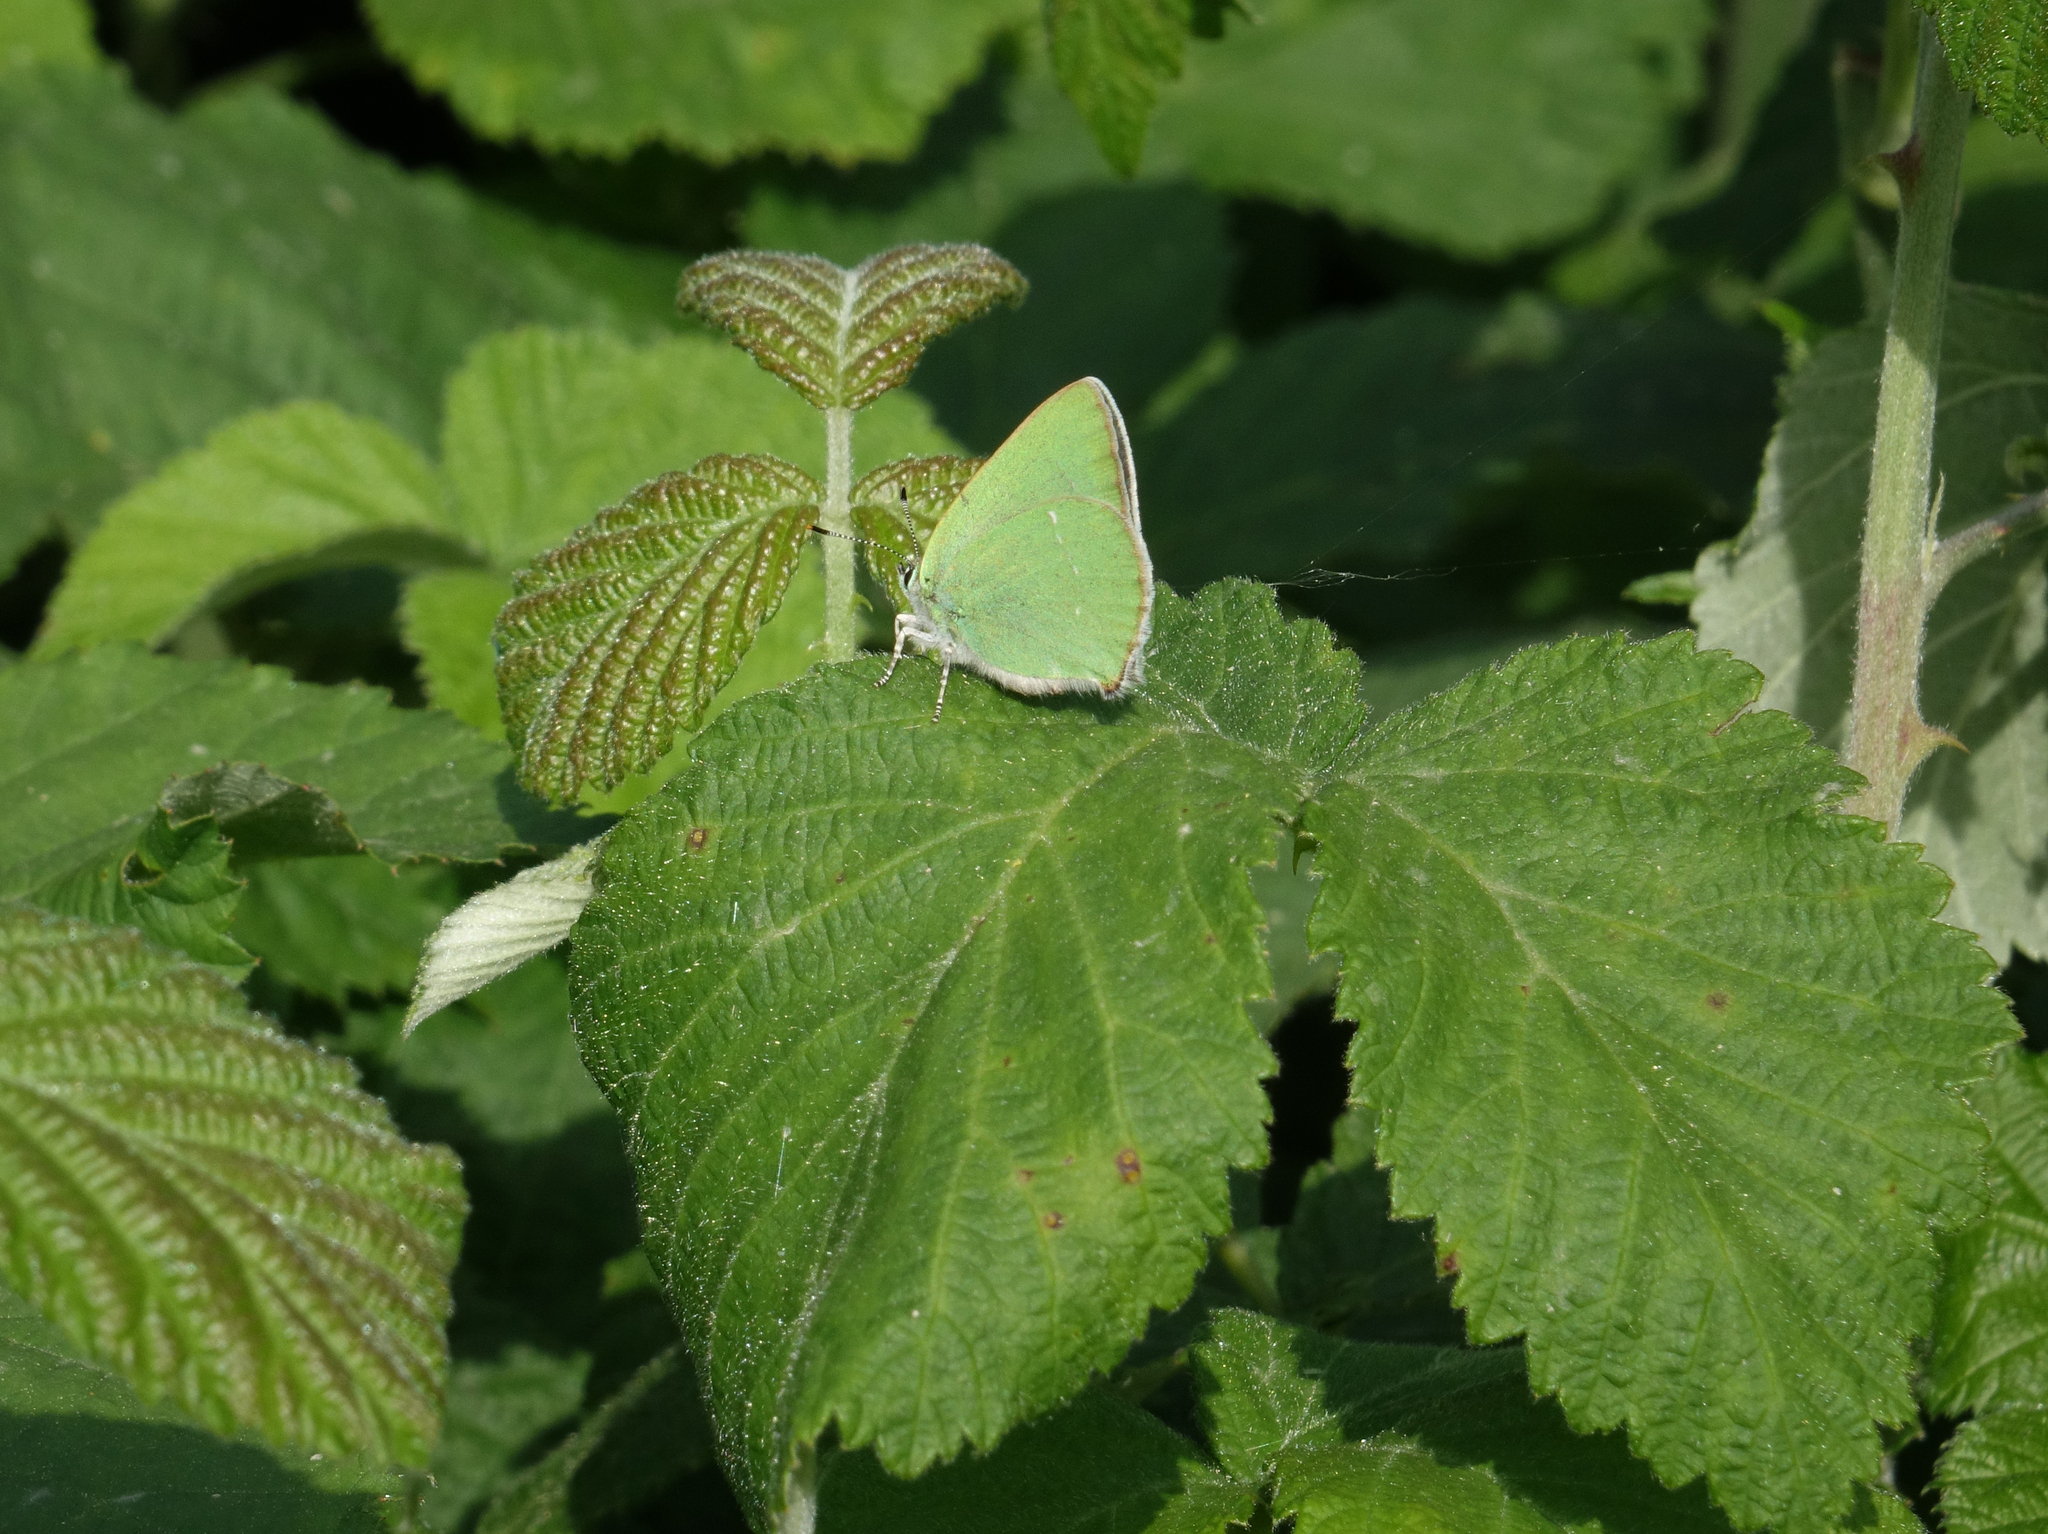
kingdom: Animalia
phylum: Arthropoda
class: Insecta
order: Lepidoptera
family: Lycaenidae
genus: Callophrys
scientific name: Callophrys rubi
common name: Green hairstreak
